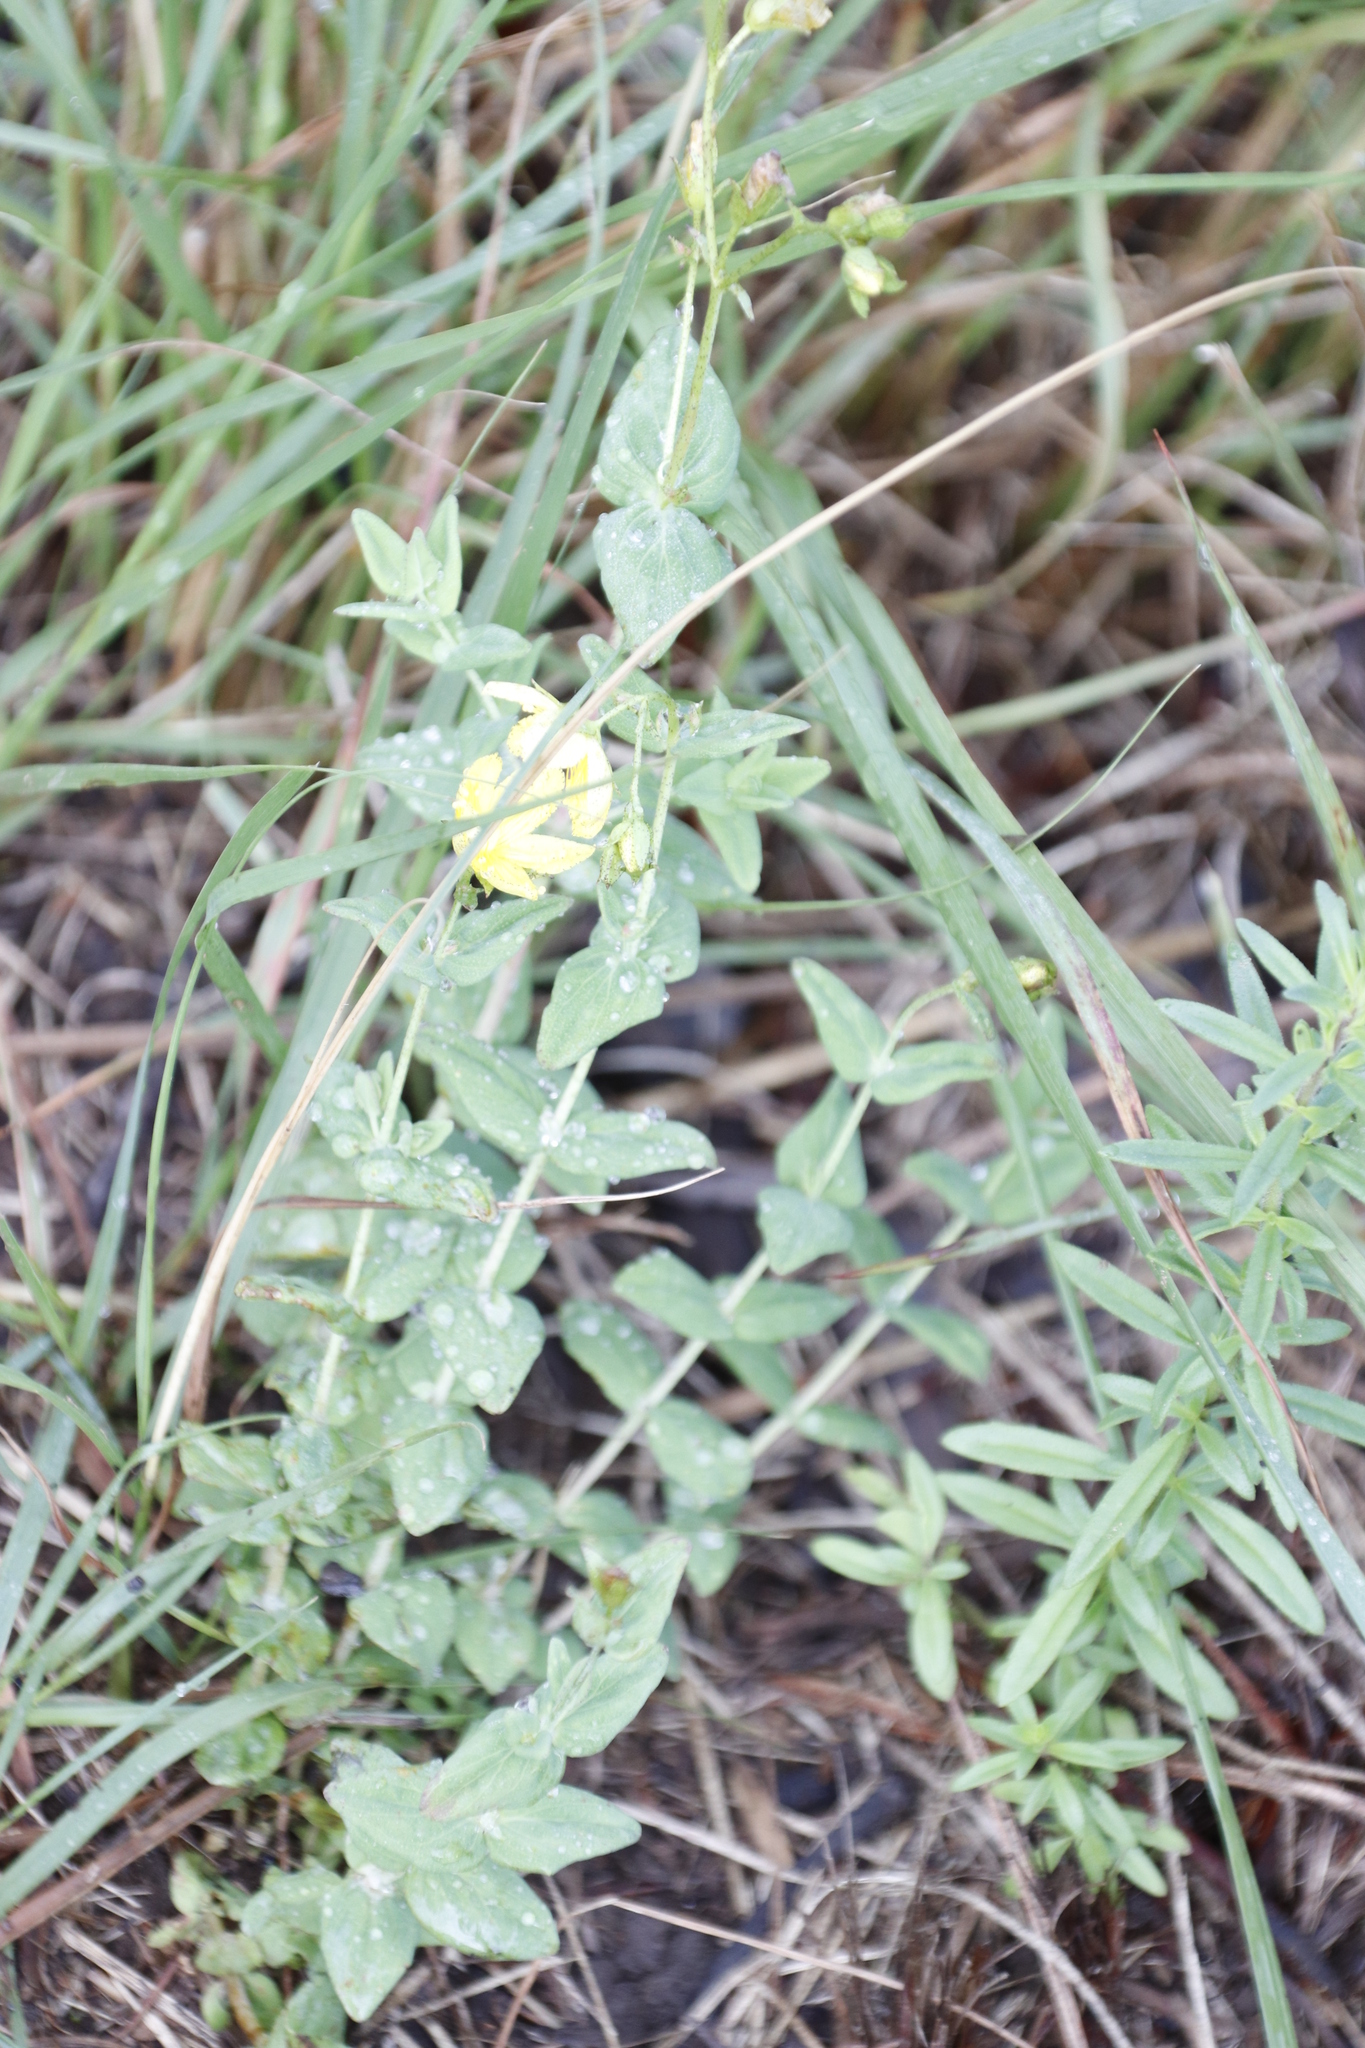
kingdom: Plantae
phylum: Tracheophyta
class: Magnoliopsida
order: Malpighiales
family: Hypericaceae
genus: Hypericum
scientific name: Hypericum aethiopicum
